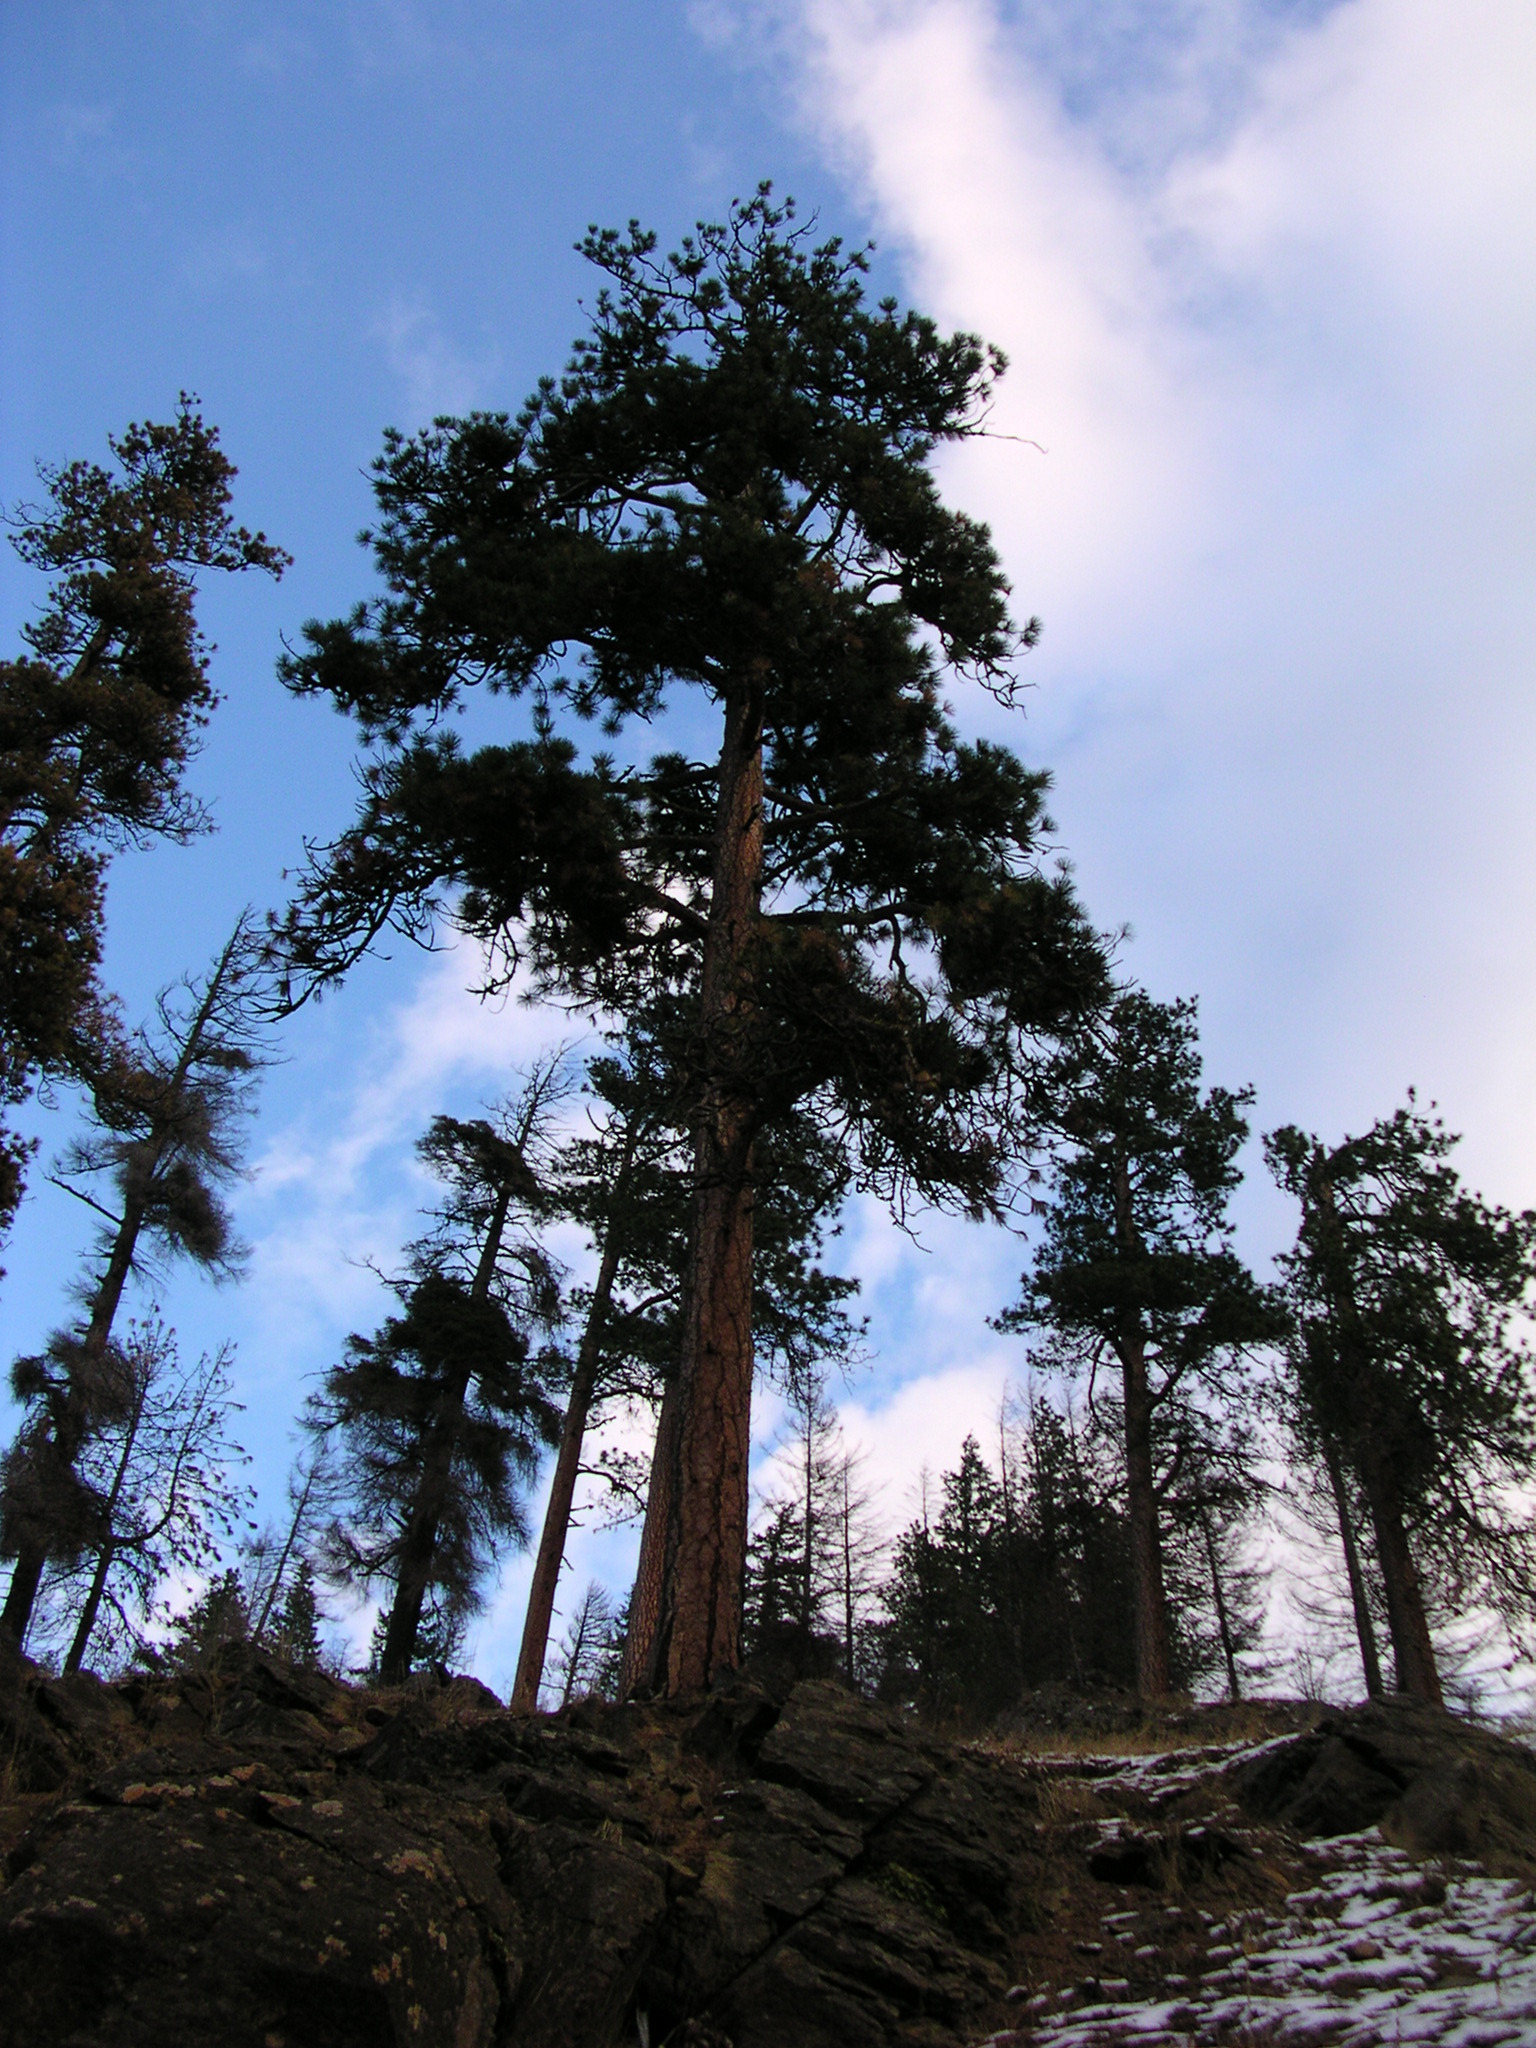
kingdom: Plantae
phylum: Tracheophyta
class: Pinopsida
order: Pinales
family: Pinaceae
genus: Pinus
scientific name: Pinus ponderosa
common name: Western yellow-pine
